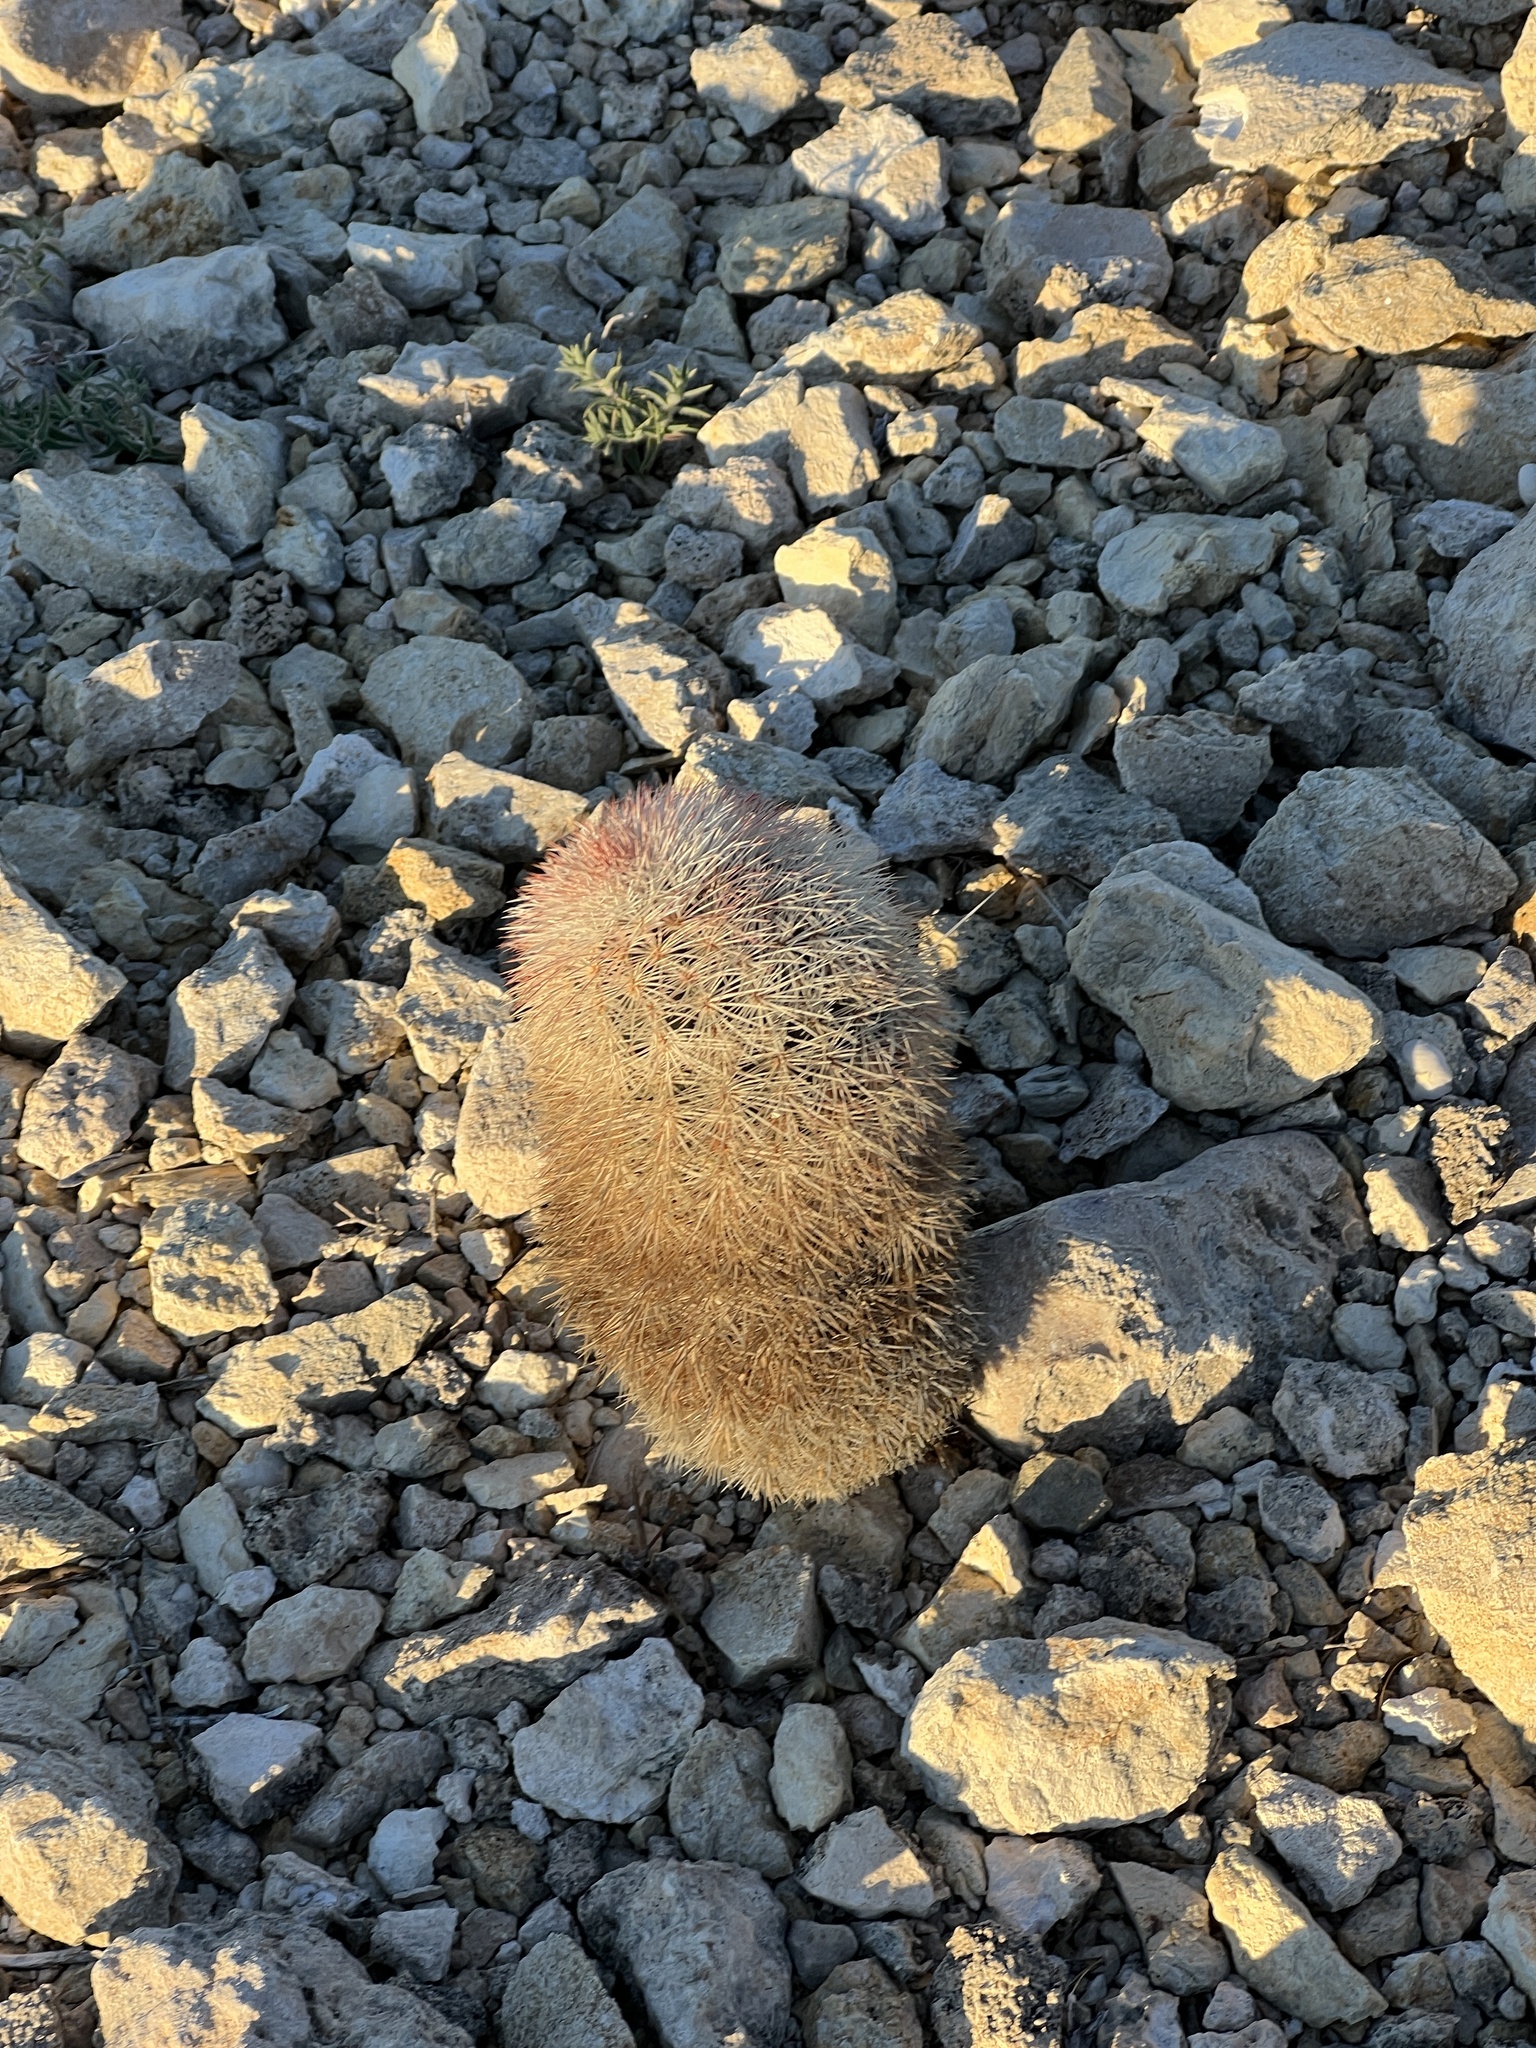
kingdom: Plantae
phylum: Tracheophyta
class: Magnoliopsida
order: Caryophyllales
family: Cactaceae
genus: Echinocereus
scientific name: Echinocereus dasyacanthus
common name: Spiny hedgehog cactus
